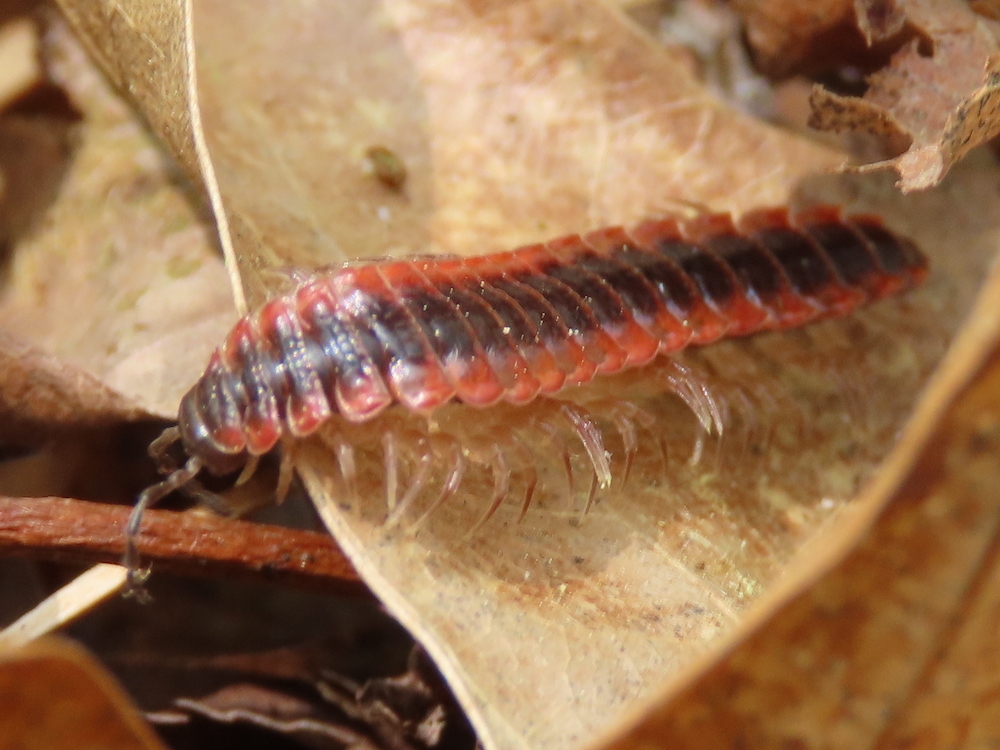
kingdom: Animalia
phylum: Arthropoda
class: Diplopoda
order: Polydesmida
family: Polydesmidae
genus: Pseudopolydesmus
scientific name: Pseudopolydesmus canadensis
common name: Canadian flat-back millipede
